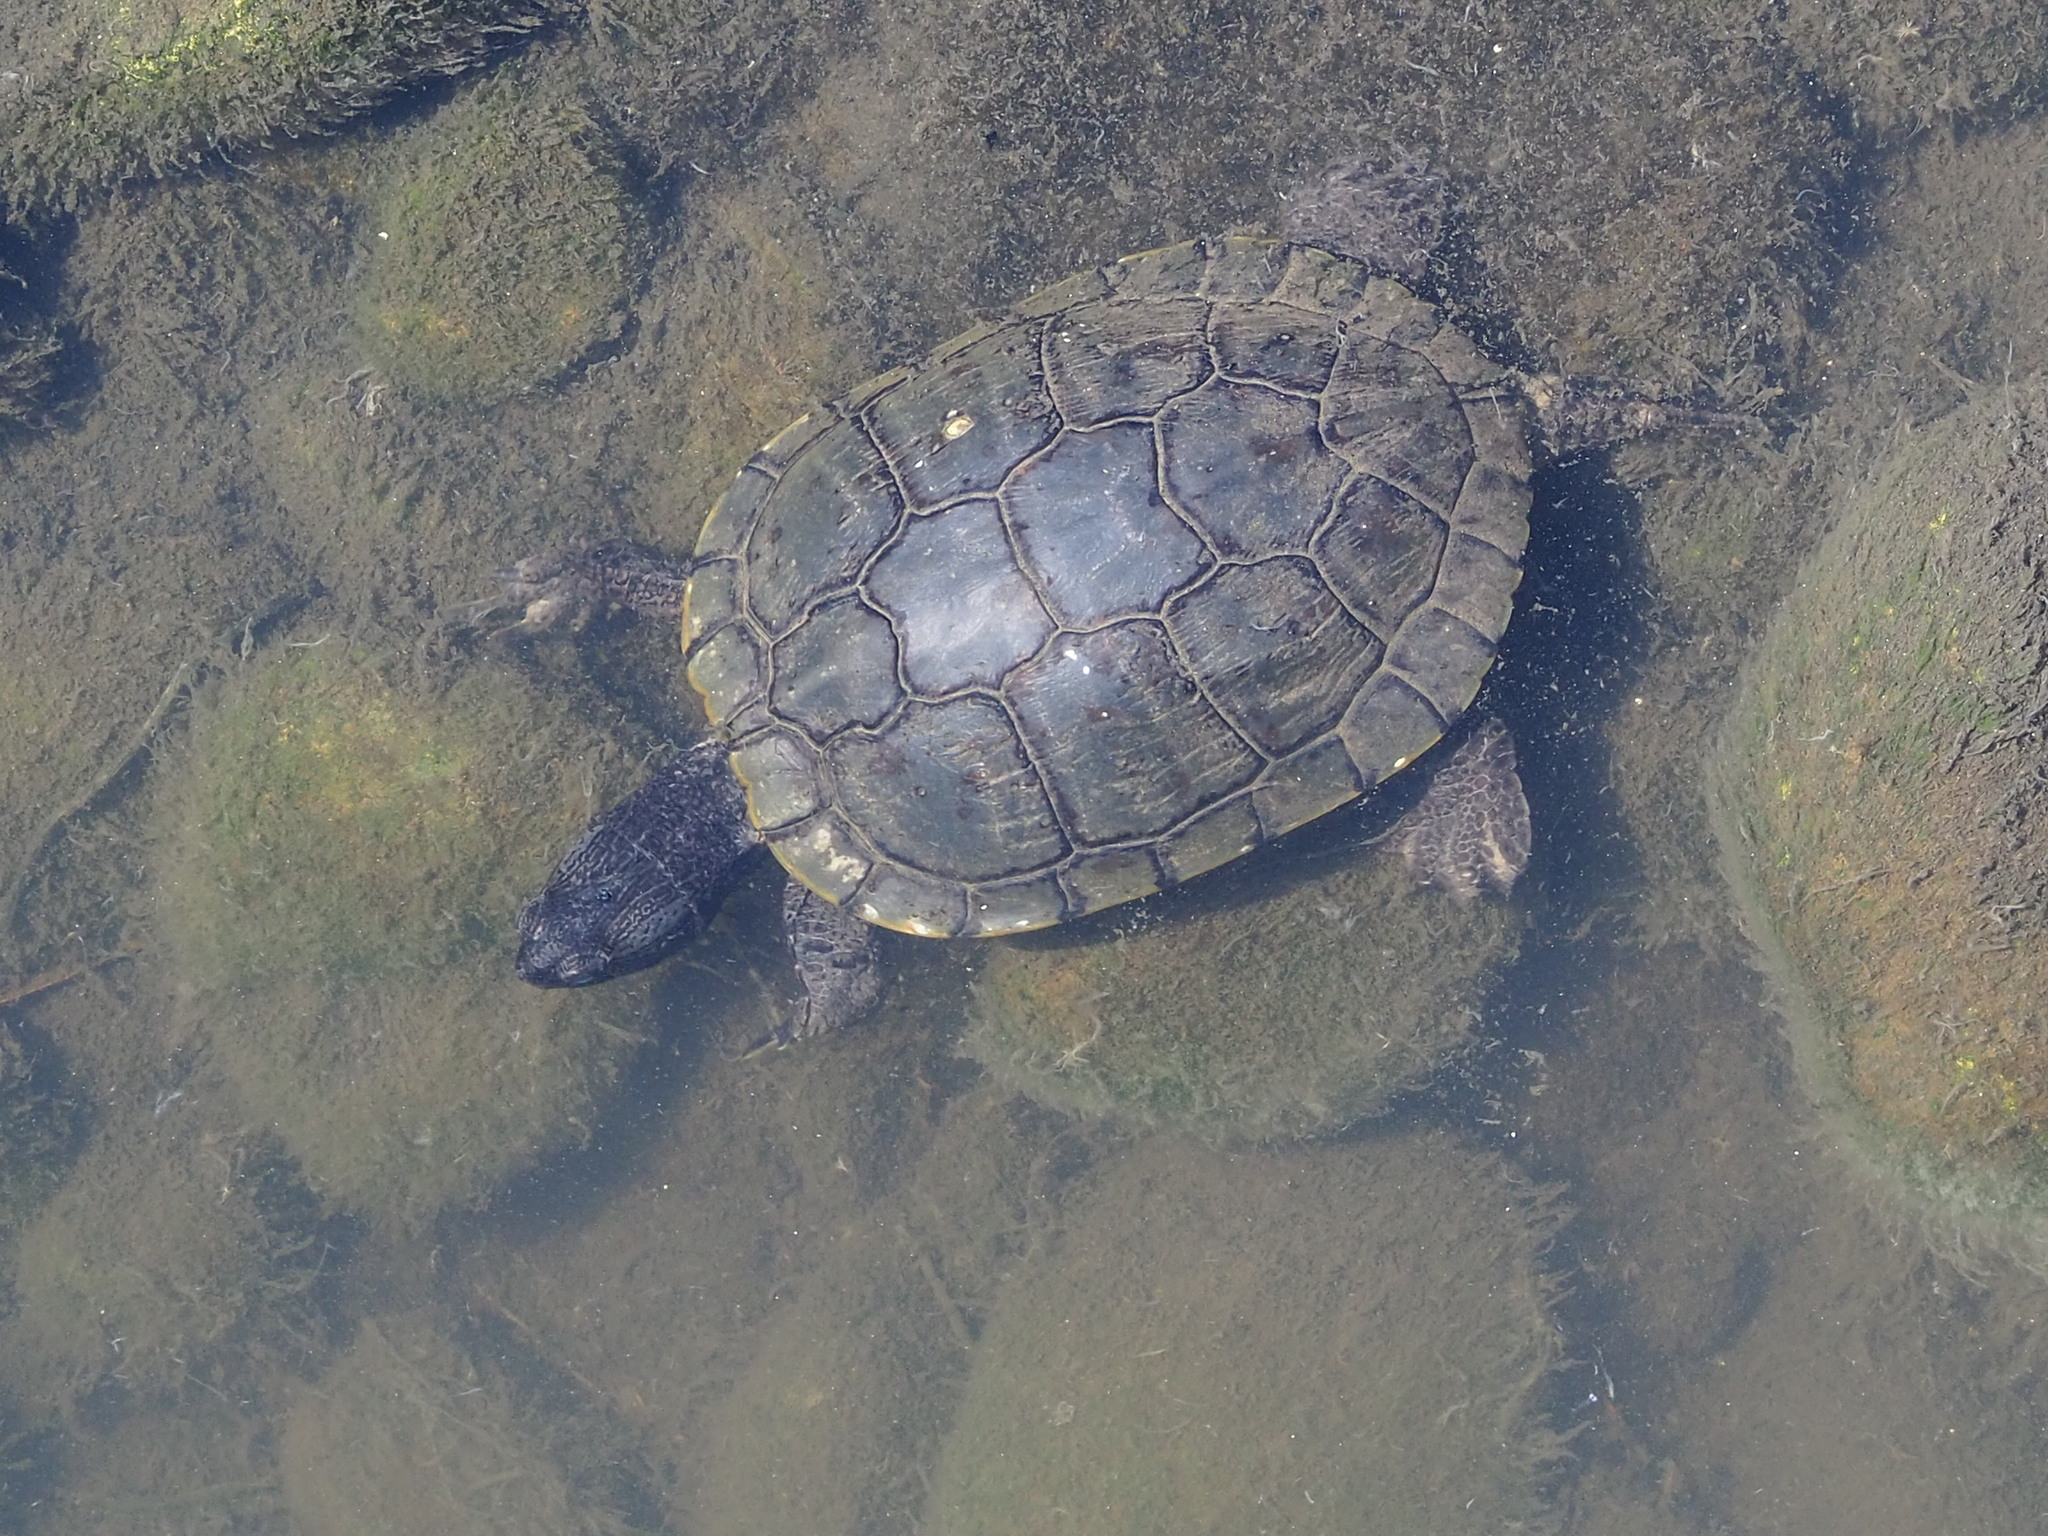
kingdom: Animalia
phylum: Chordata
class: Testudines
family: Emydidae
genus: Trachemys
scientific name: Trachemys scripta
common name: Slider
